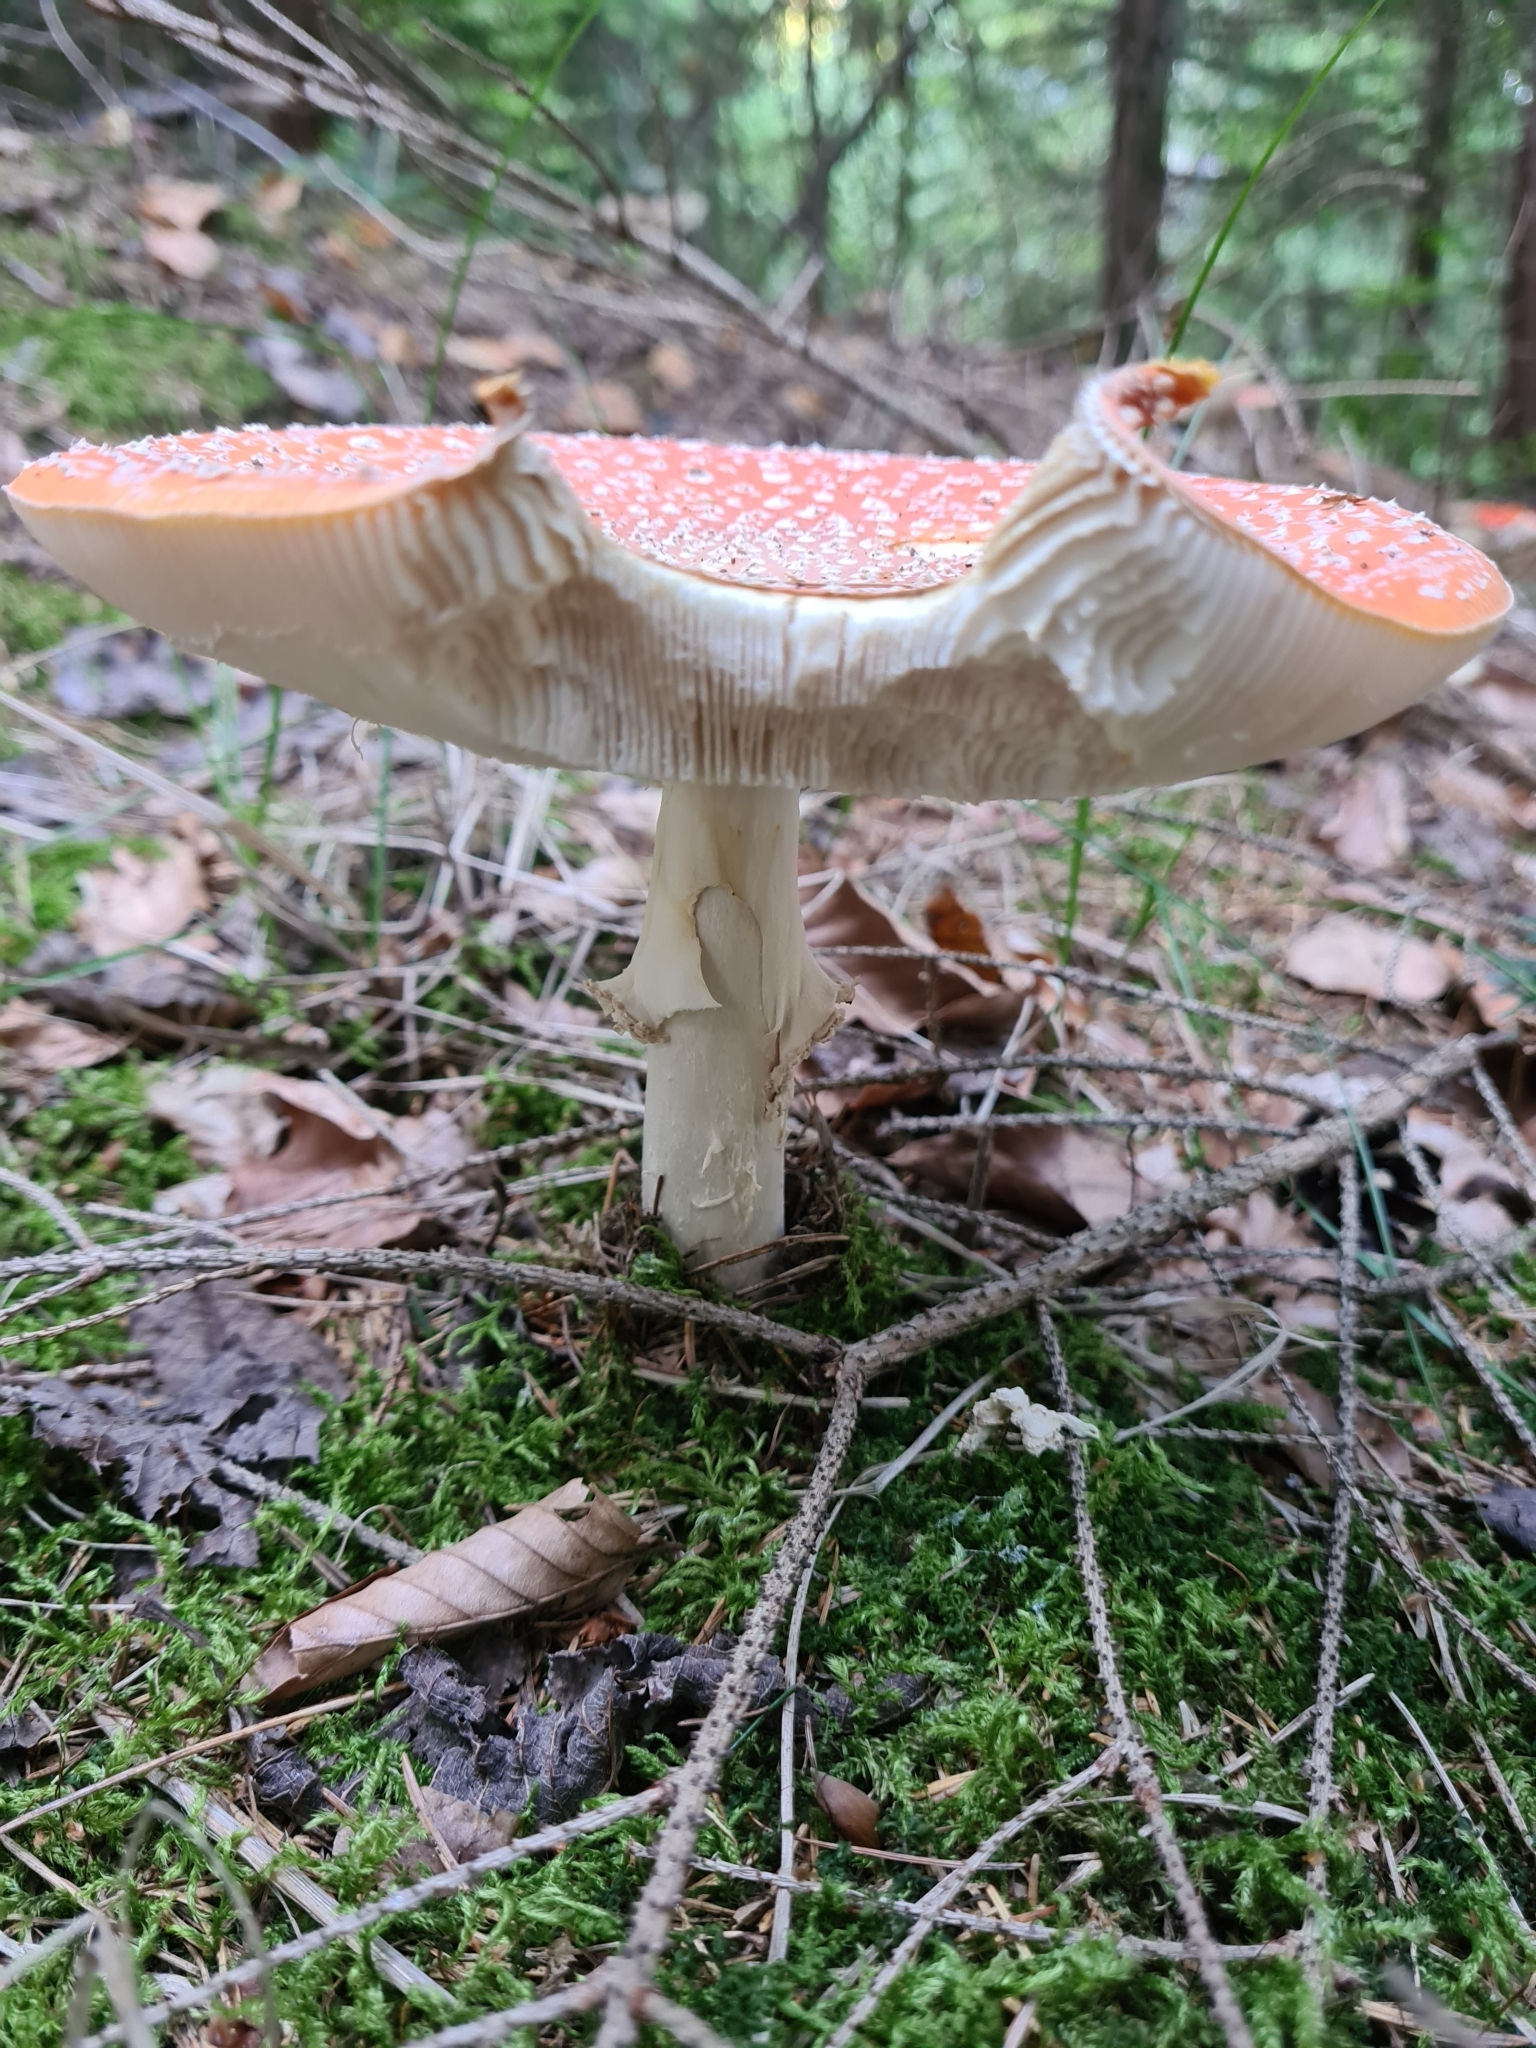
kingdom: Fungi
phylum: Basidiomycota
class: Agaricomycetes
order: Agaricales
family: Amanitaceae
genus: Amanita
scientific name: Amanita muscaria
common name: Fly agaric
